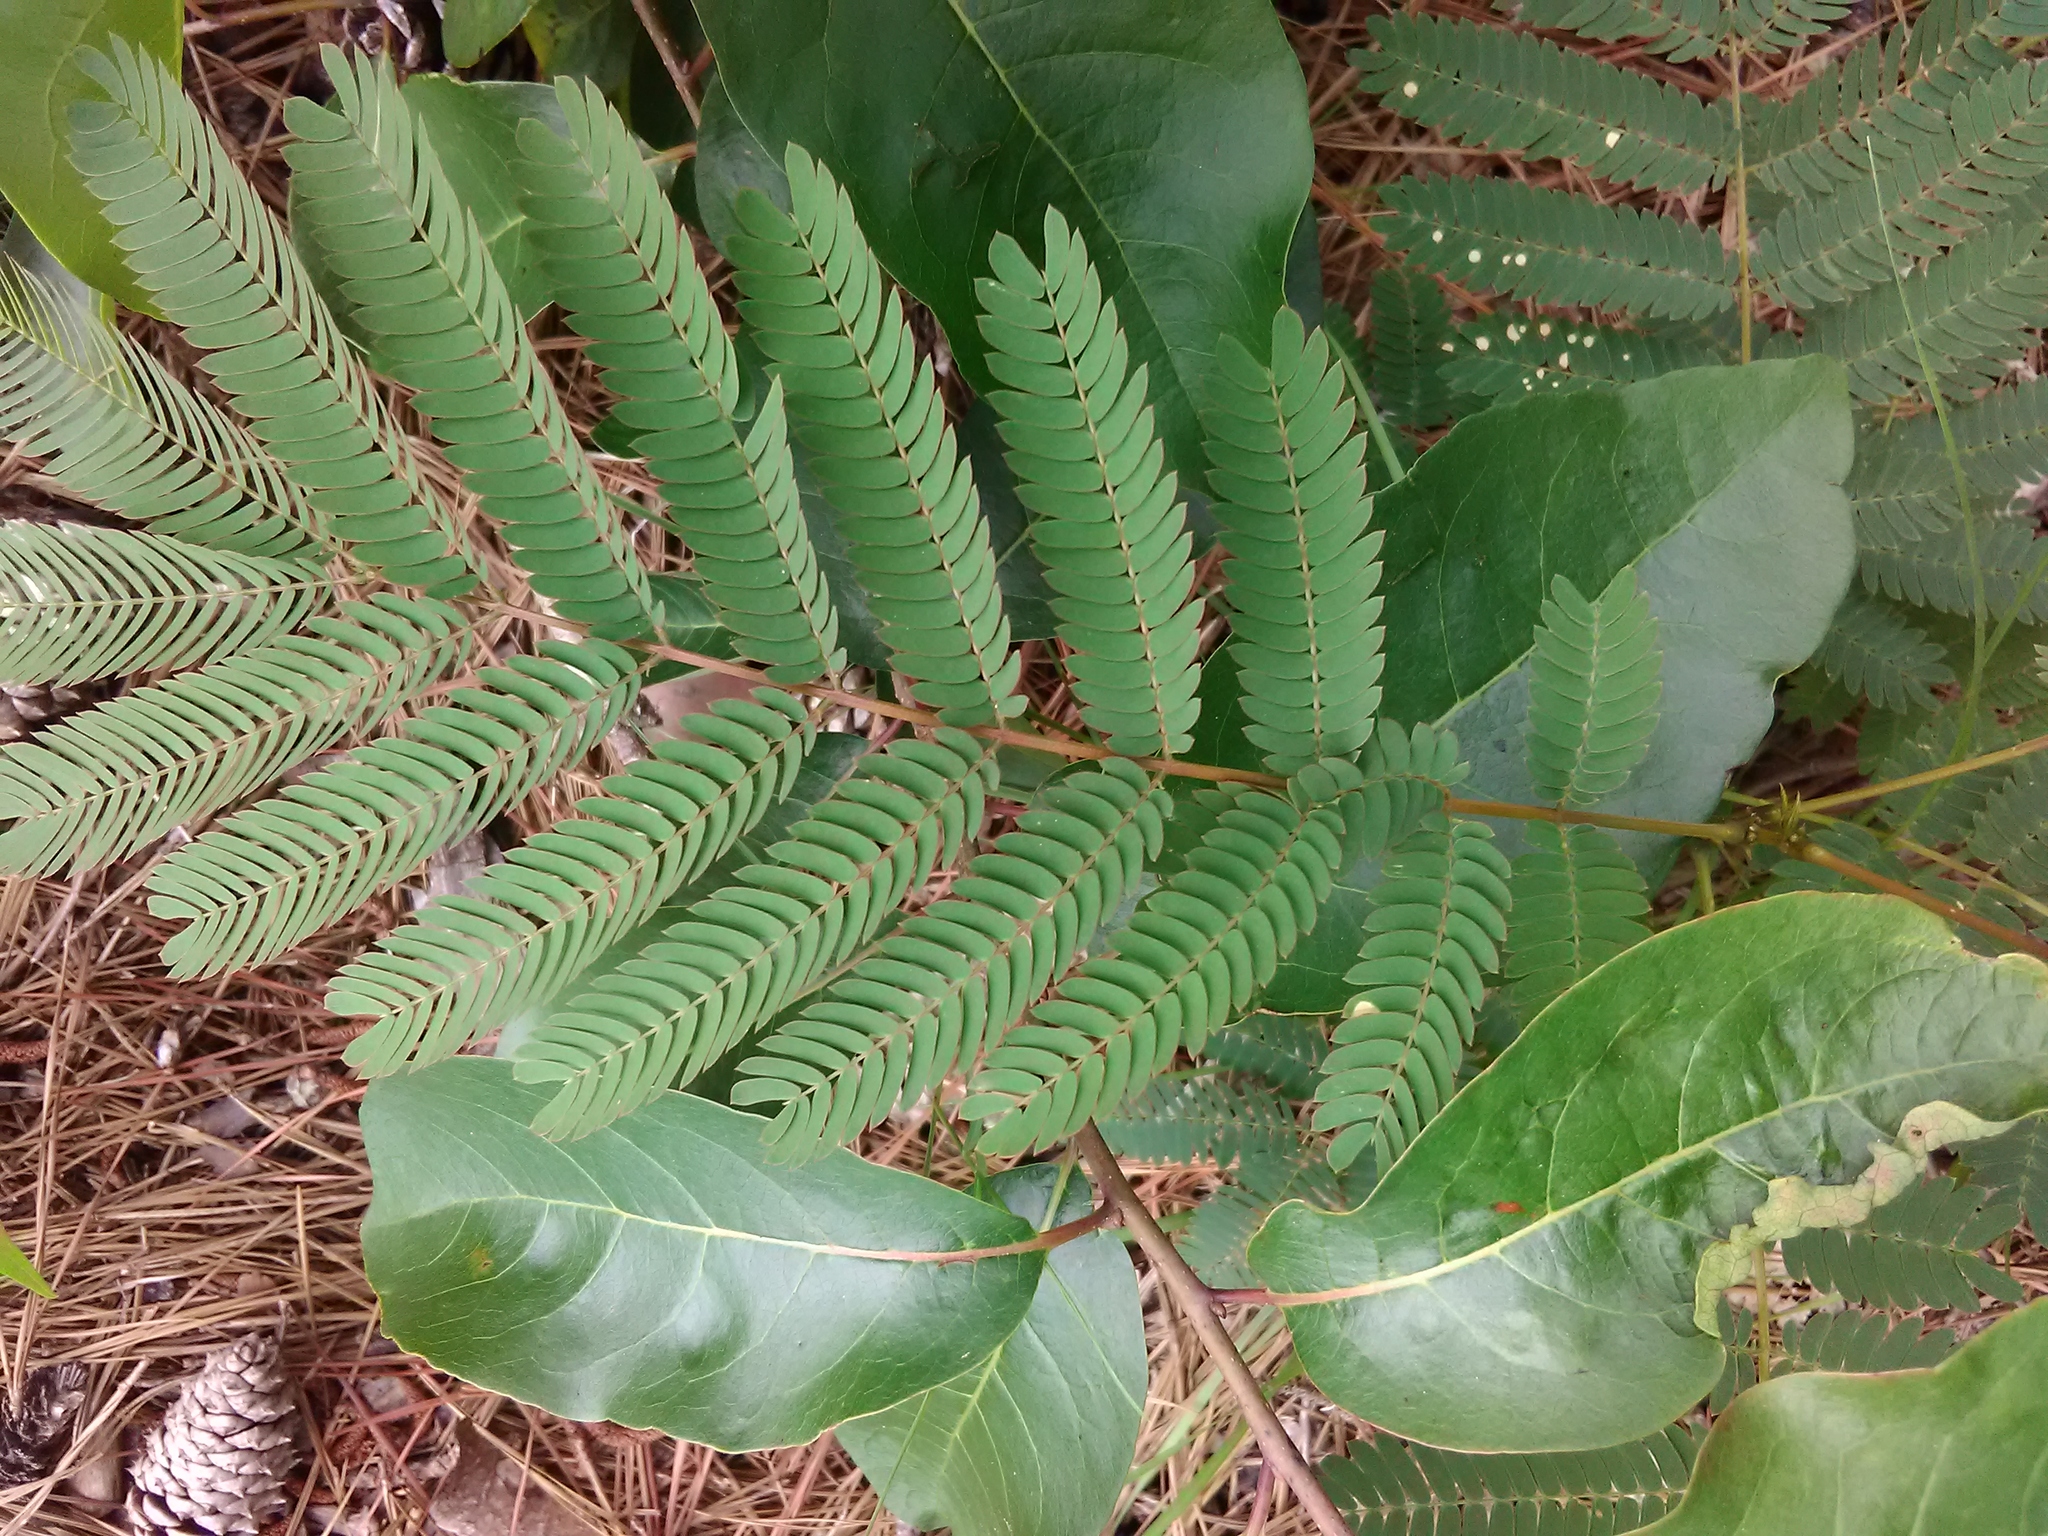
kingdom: Plantae
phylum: Tracheophyta
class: Magnoliopsida
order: Fabales
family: Fabaceae
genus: Albizia
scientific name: Albizia julibrissin
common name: Silktree
